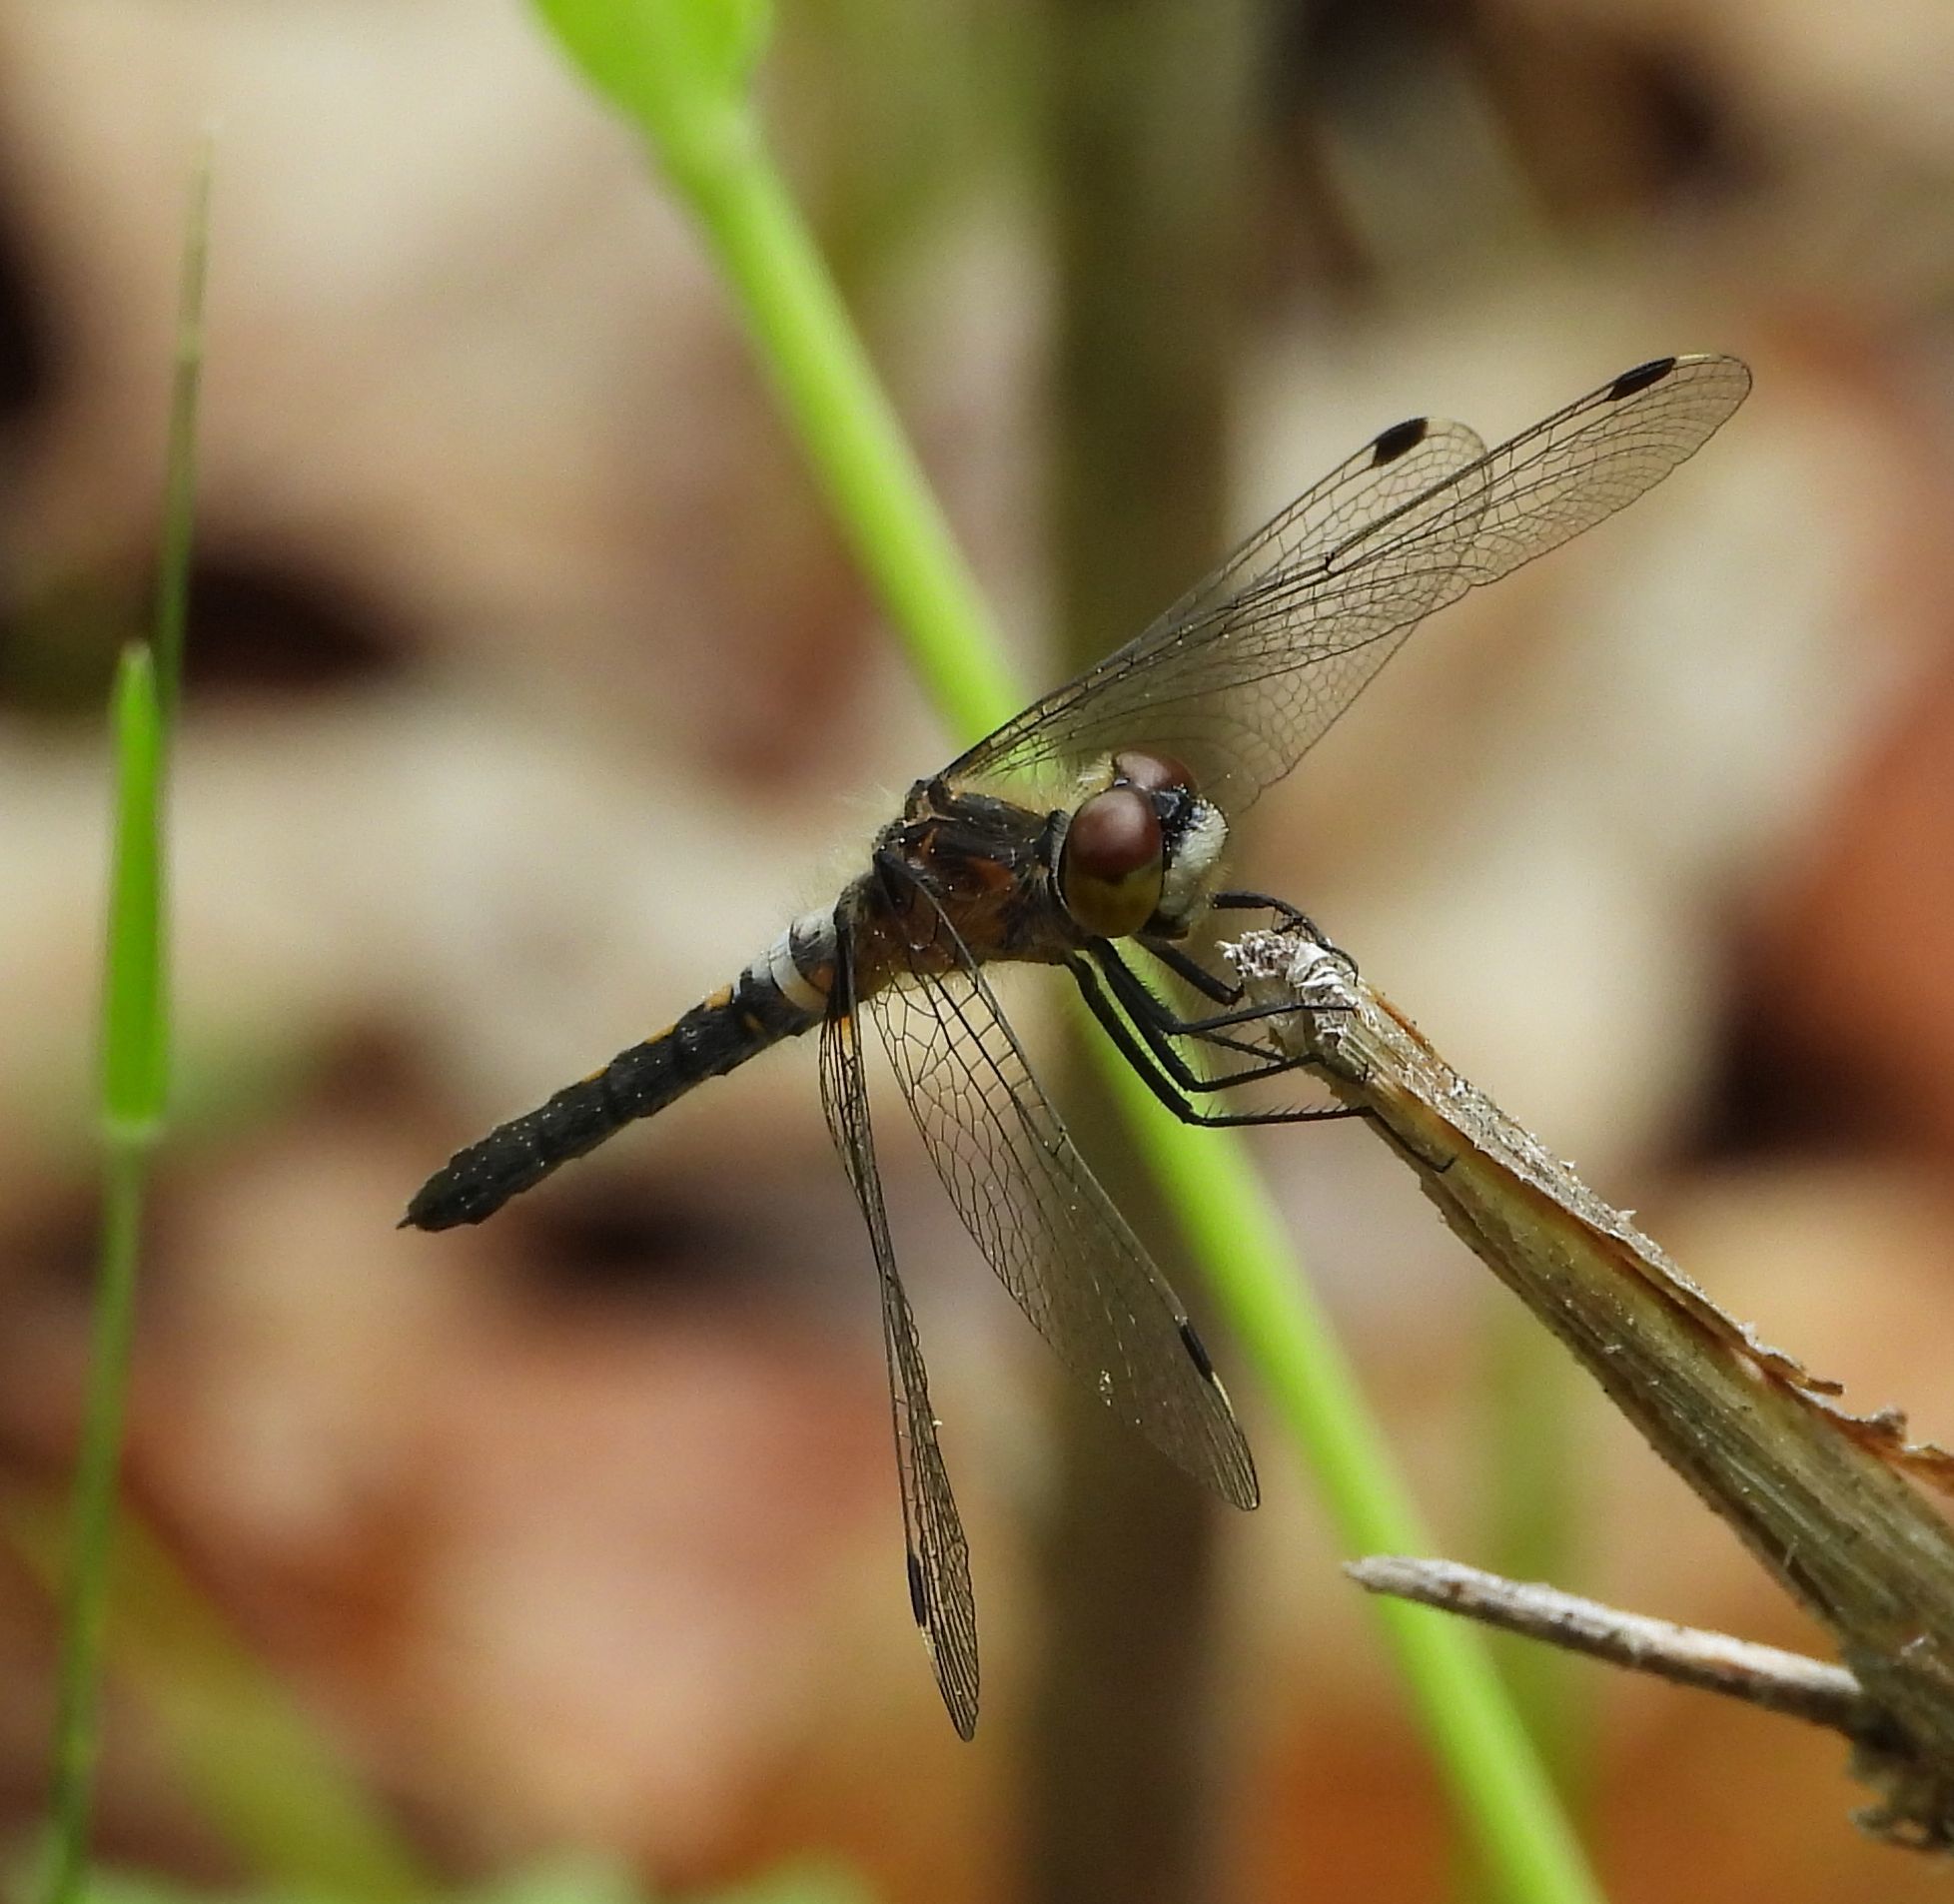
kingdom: Animalia
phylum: Arthropoda
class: Insecta
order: Odonata
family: Libellulidae
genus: Leucorrhinia
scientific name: Leucorrhinia frigida
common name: Frosted whiteface
